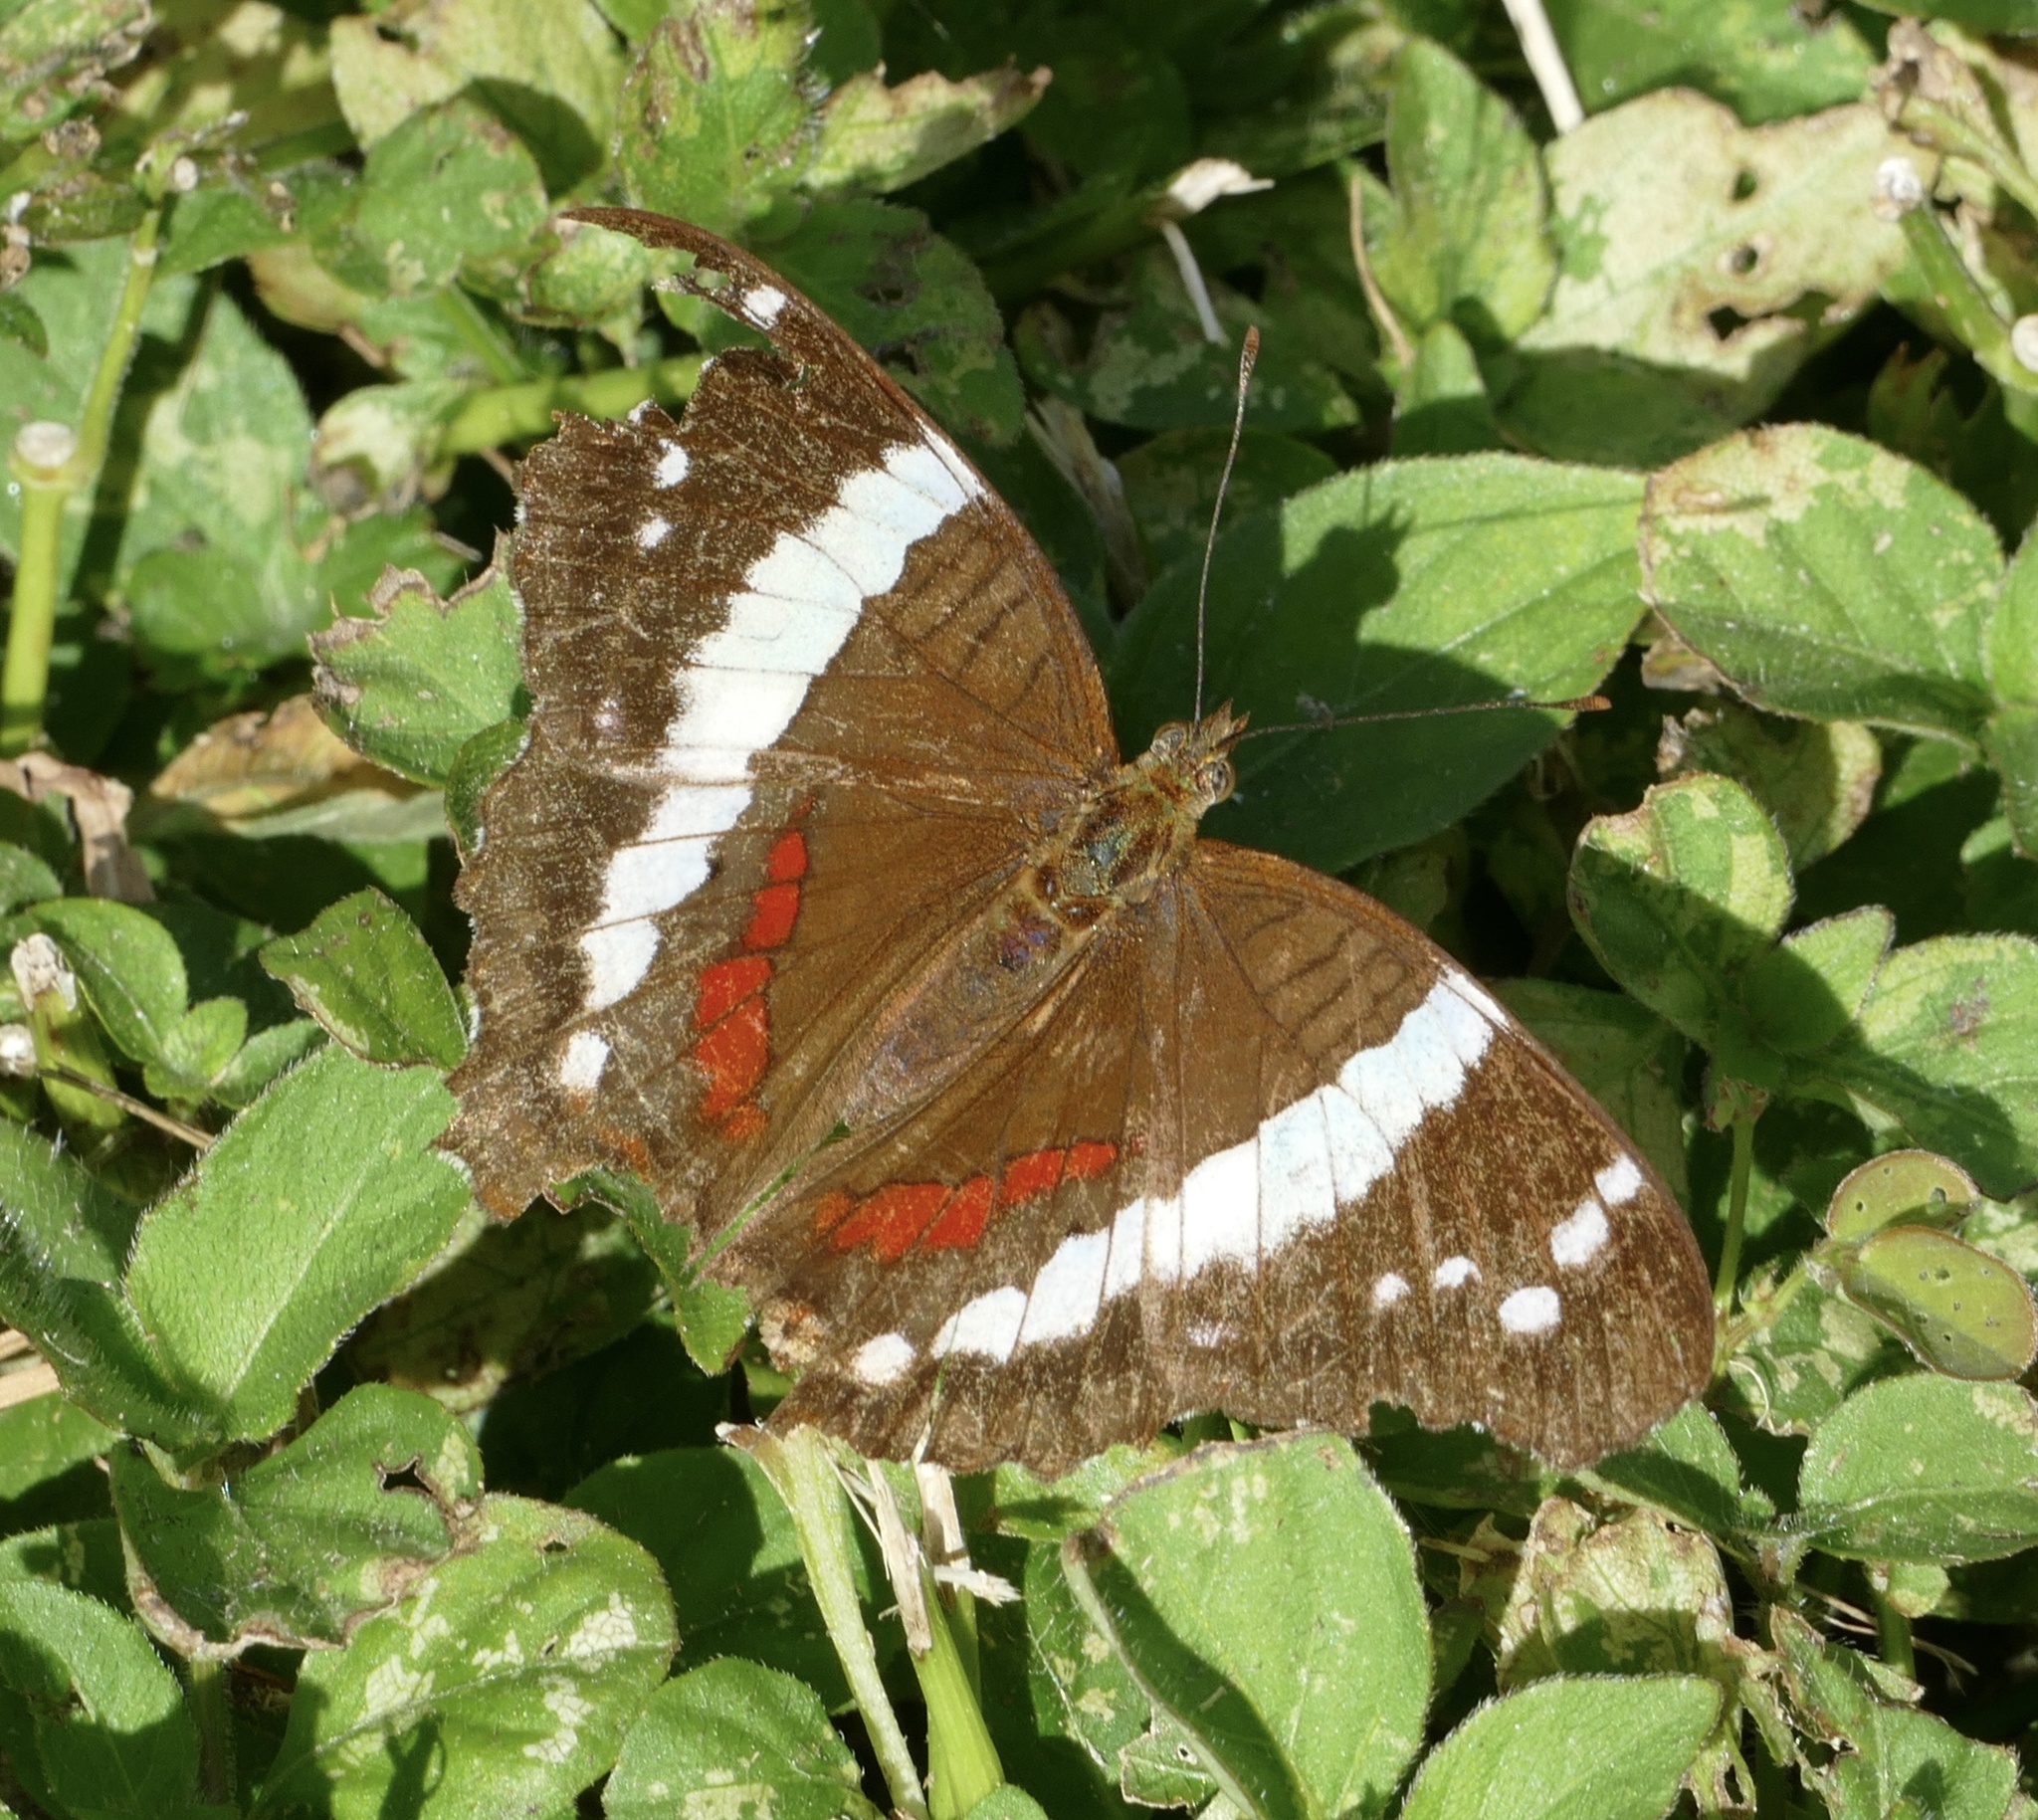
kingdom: Animalia
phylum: Arthropoda
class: Insecta
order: Lepidoptera
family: Nymphalidae
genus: Anartia
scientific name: Anartia fatima
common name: Banded peacock
